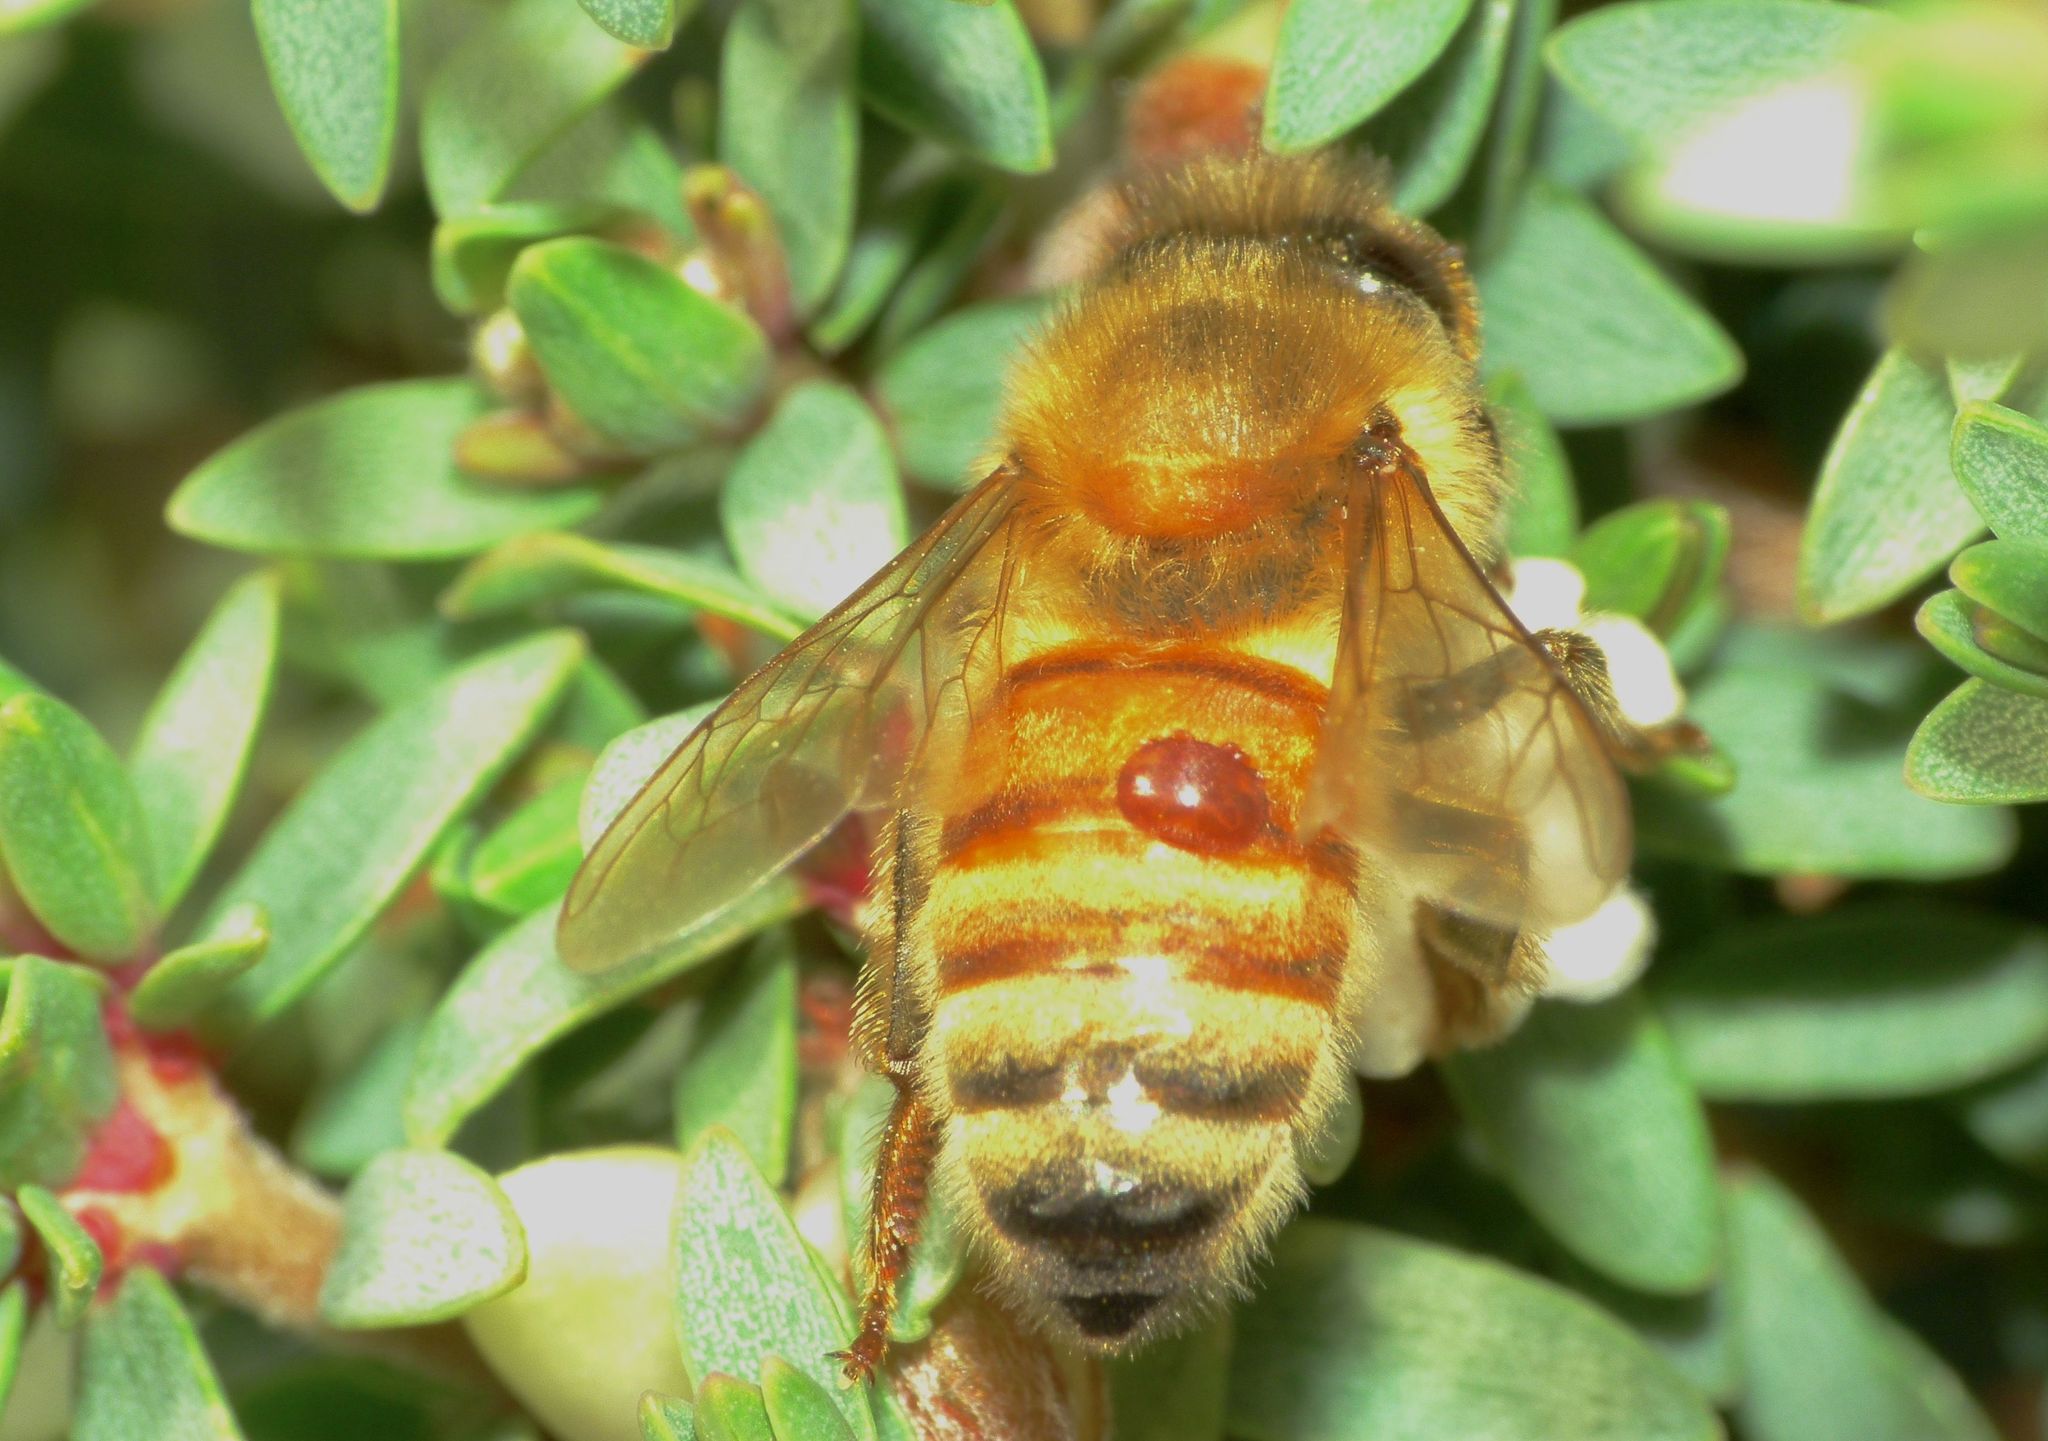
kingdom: Animalia
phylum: Arthropoda
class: Arachnida
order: Mesostigmata
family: Varroidae
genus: Varroa
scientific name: Varroa destructor
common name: Honey bee mite
